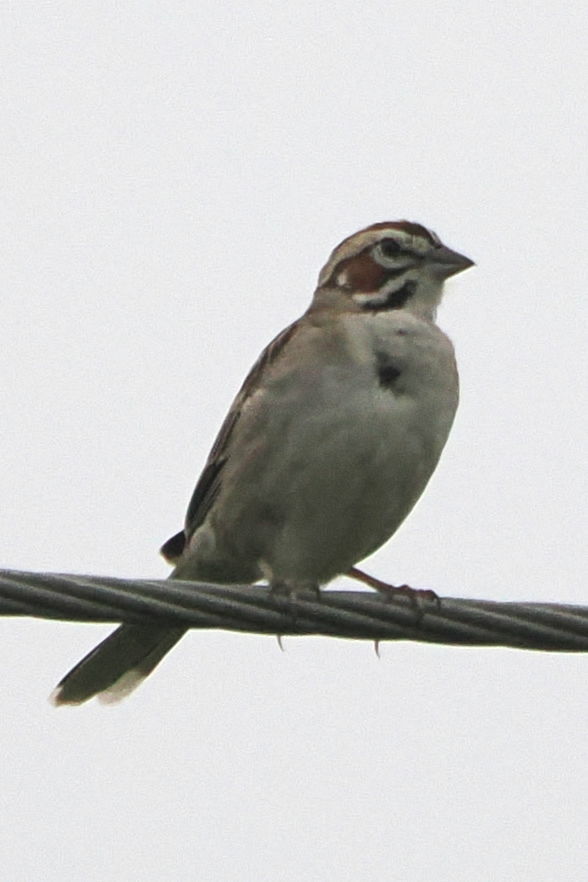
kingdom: Animalia
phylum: Chordata
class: Aves
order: Passeriformes
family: Passerellidae
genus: Chondestes
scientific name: Chondestes grammacus
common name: Lark sparrow
